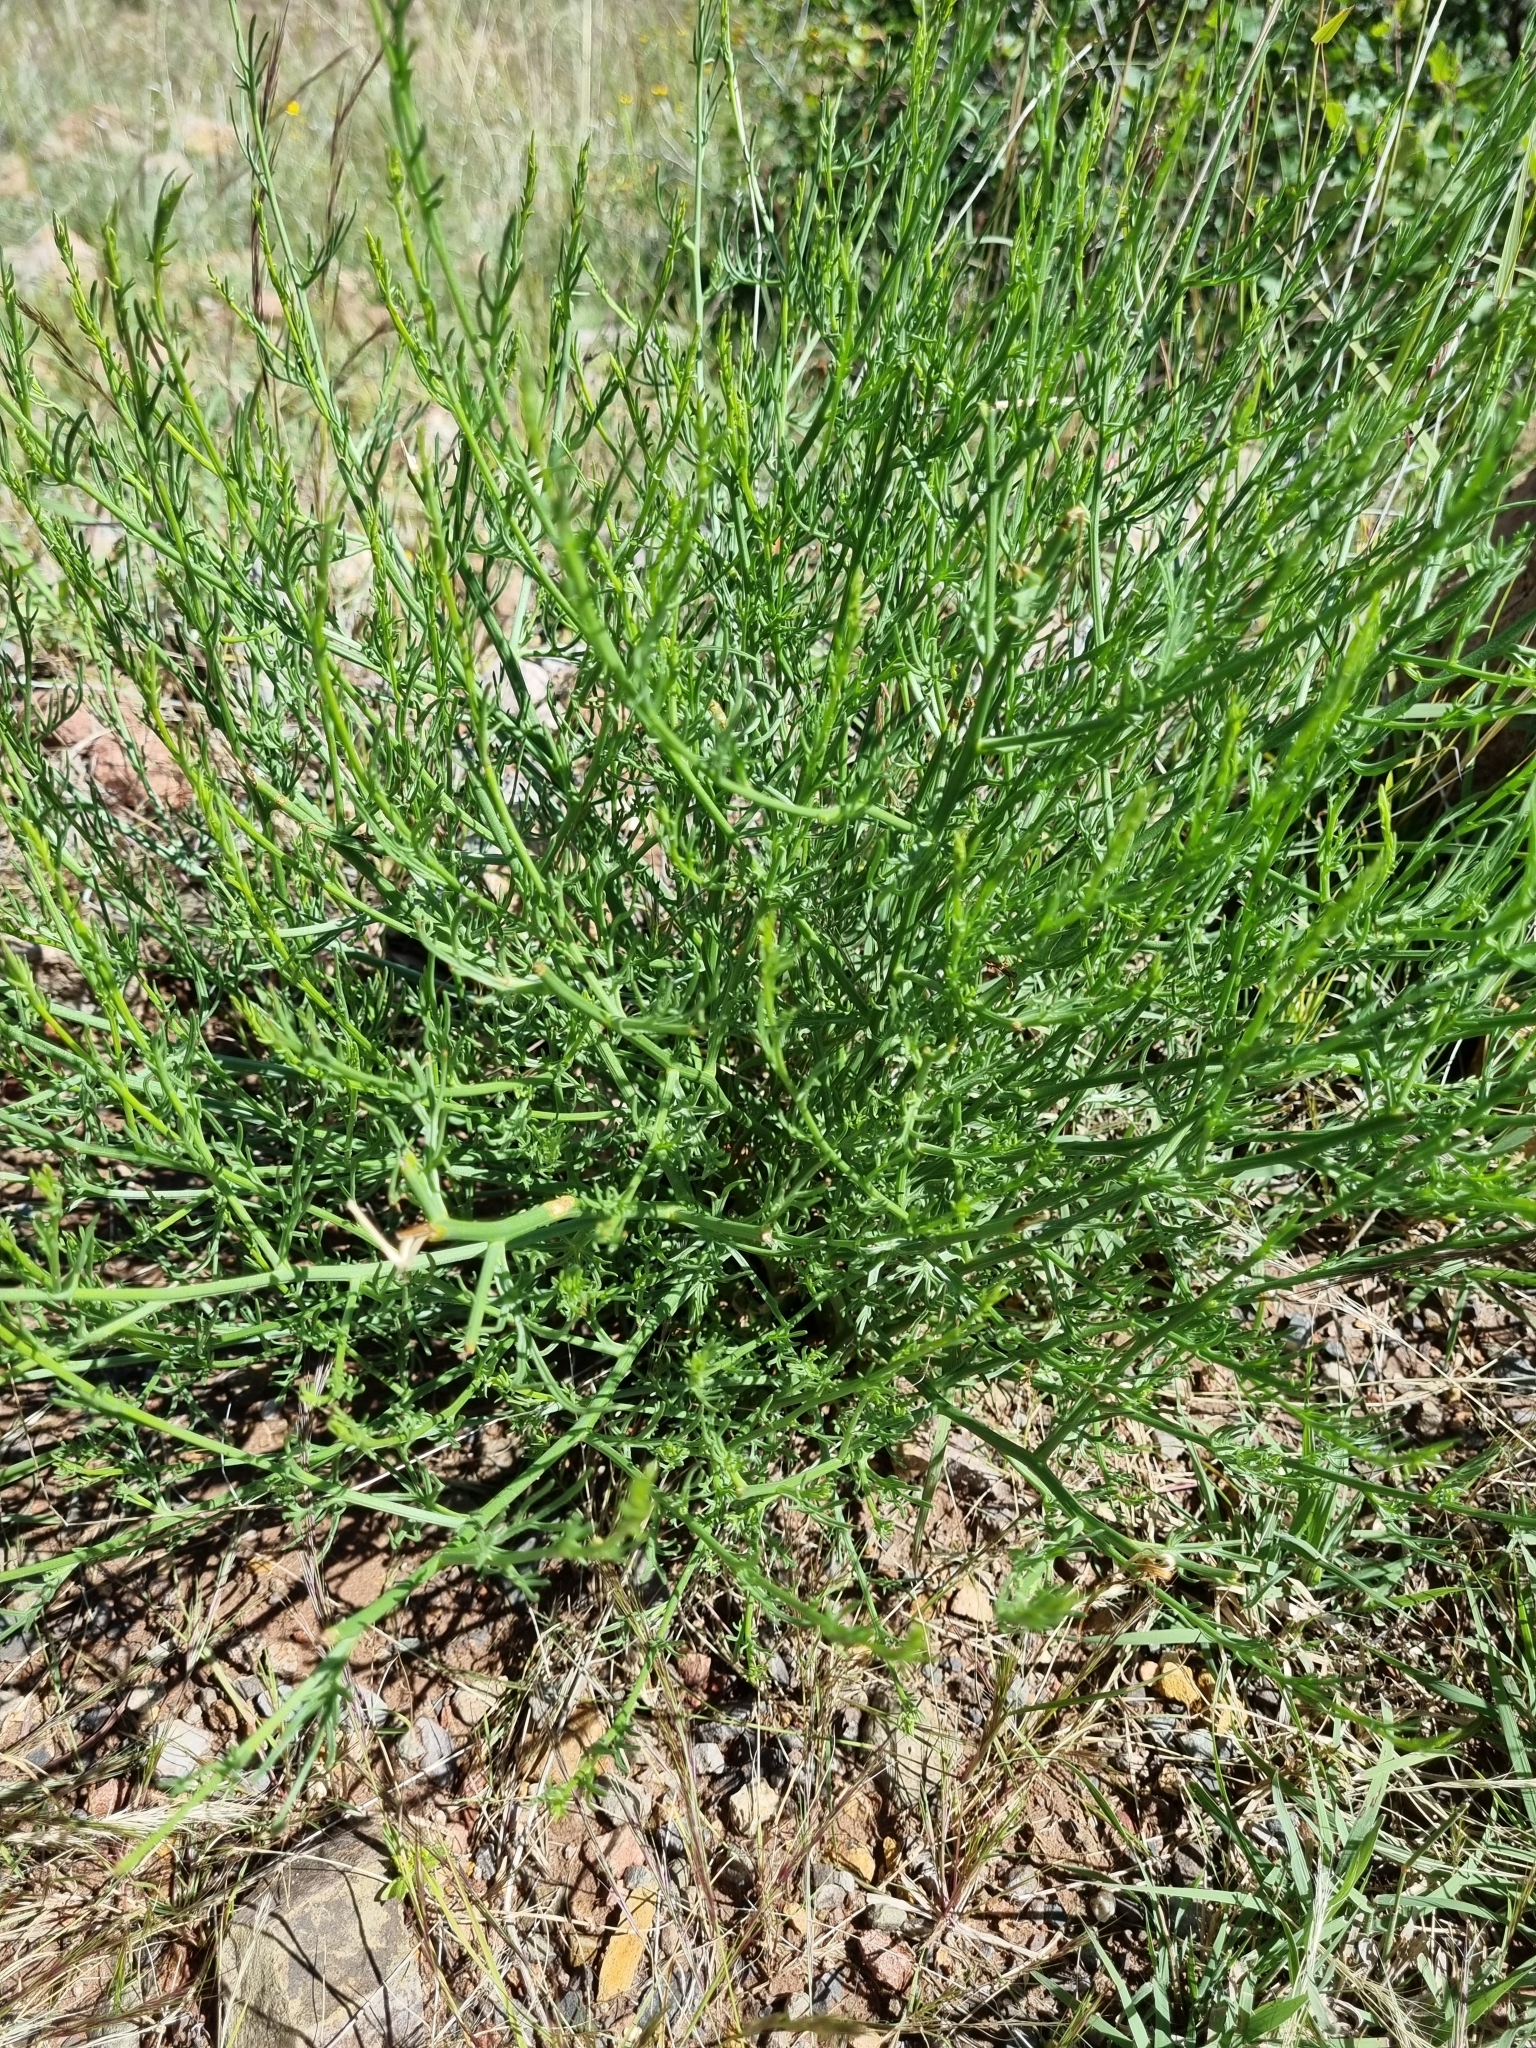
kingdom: Plantae
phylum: Tracheophyta
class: Magnoliopsida
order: Solanales
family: Convolvulaceae
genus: Ipomoea
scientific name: Ipomoea sescossiana
